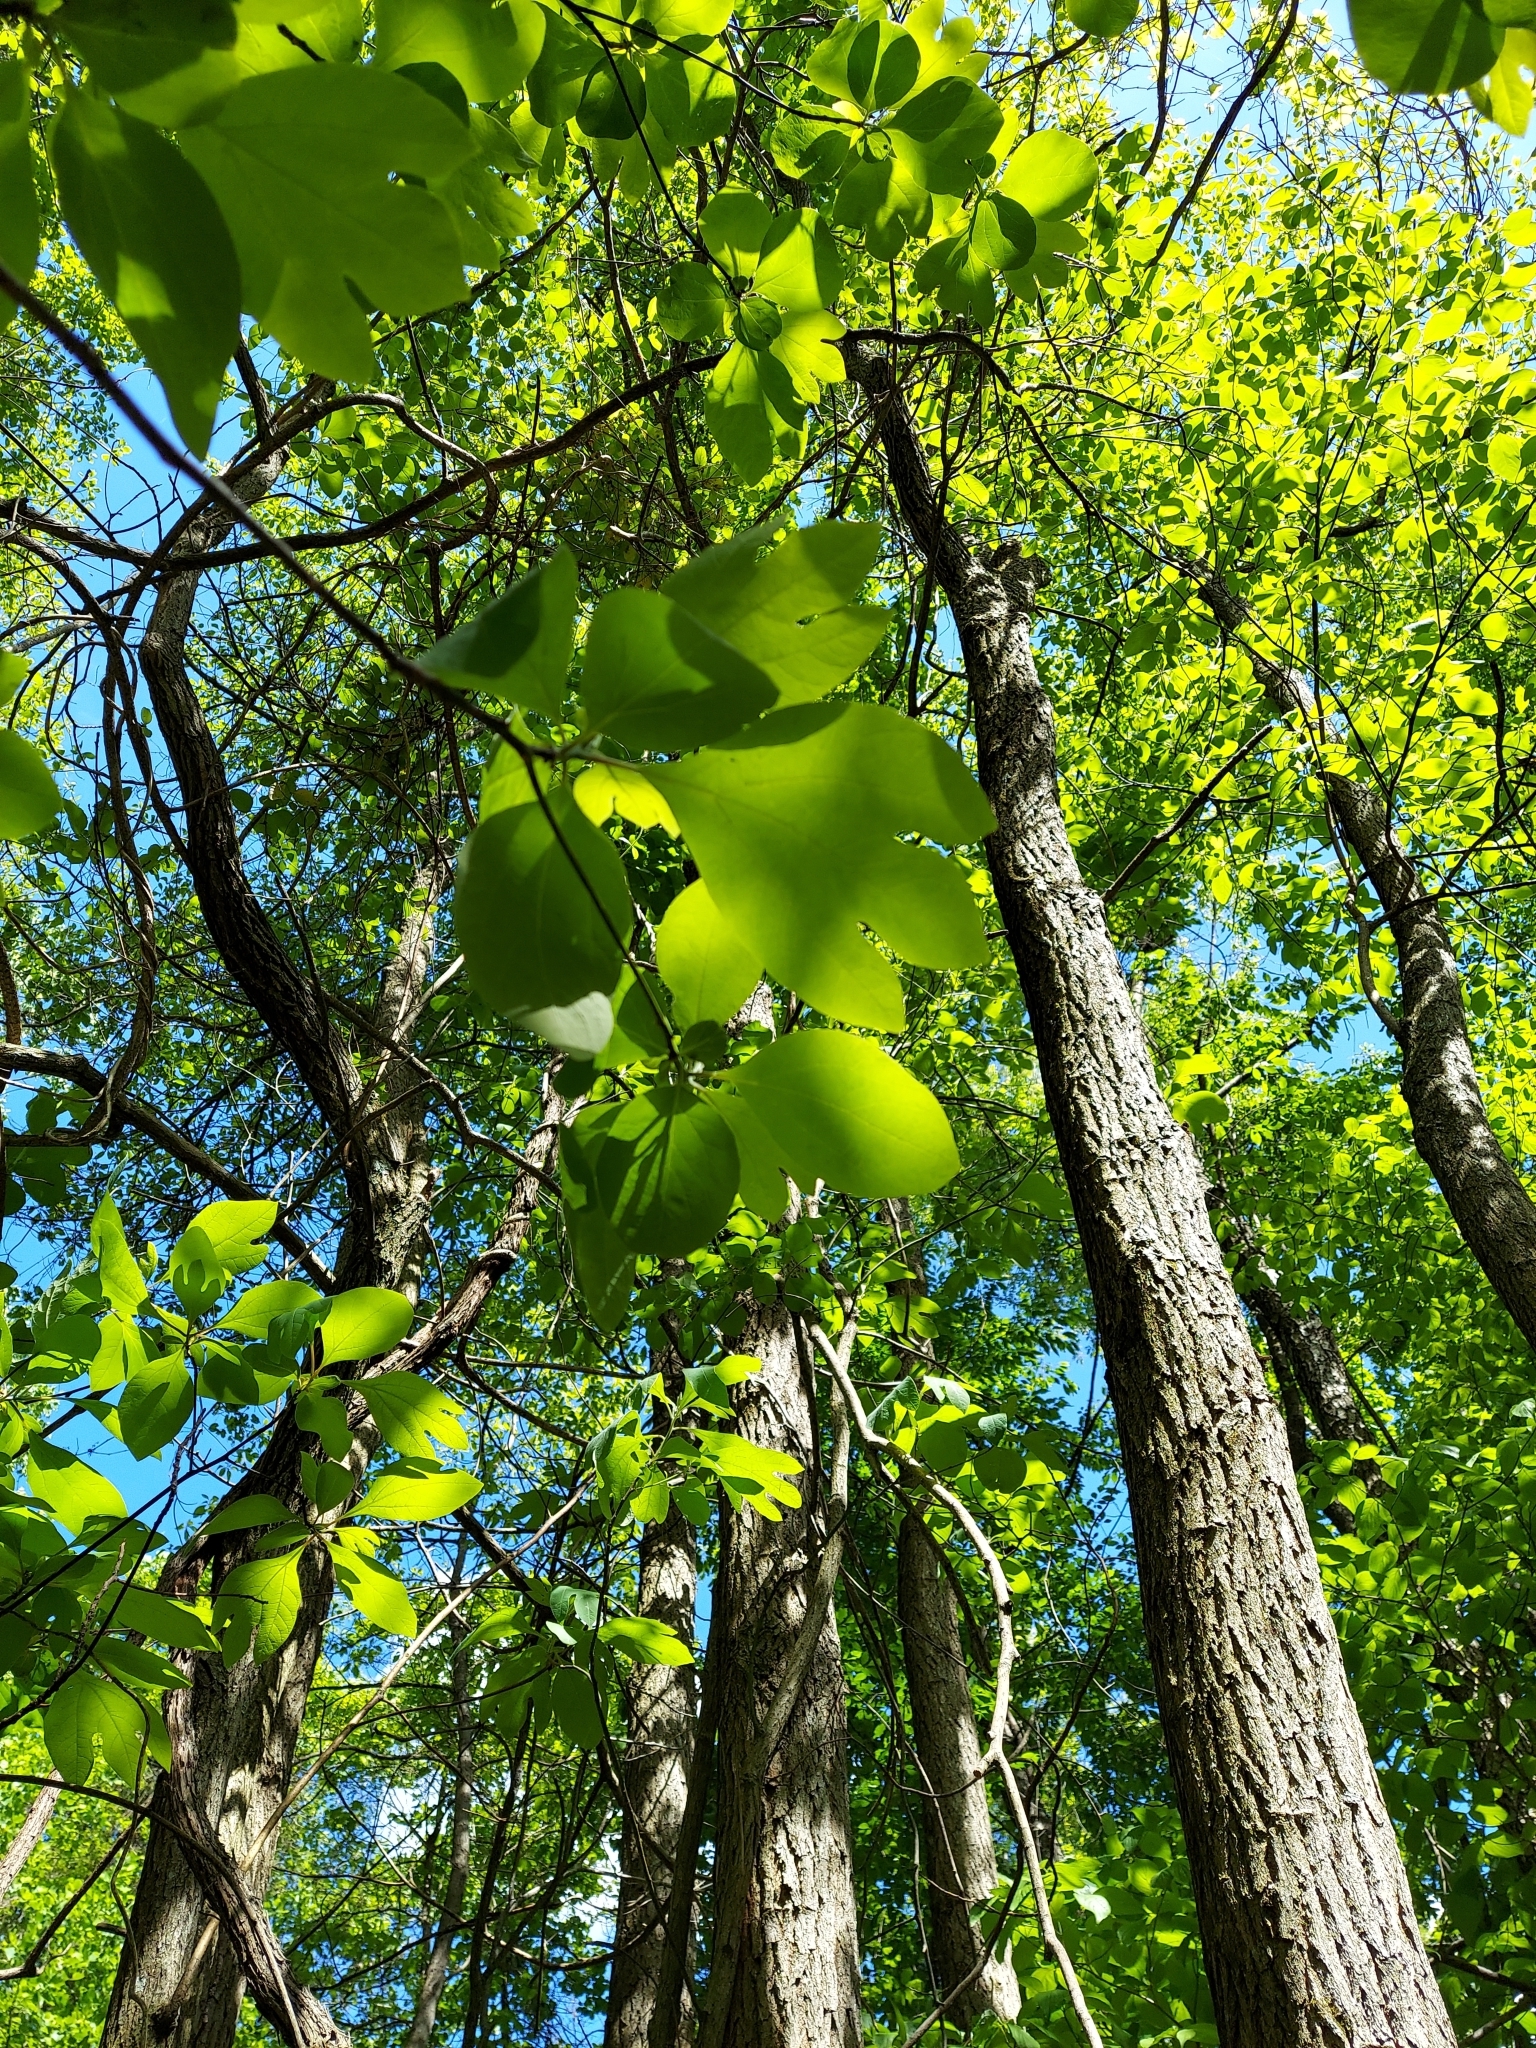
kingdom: Plantae
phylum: Tracheophyta
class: Magnoliopsida
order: Laurales
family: Lauraceae
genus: Sassafras
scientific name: Sassafras albidum
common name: Sassafras
